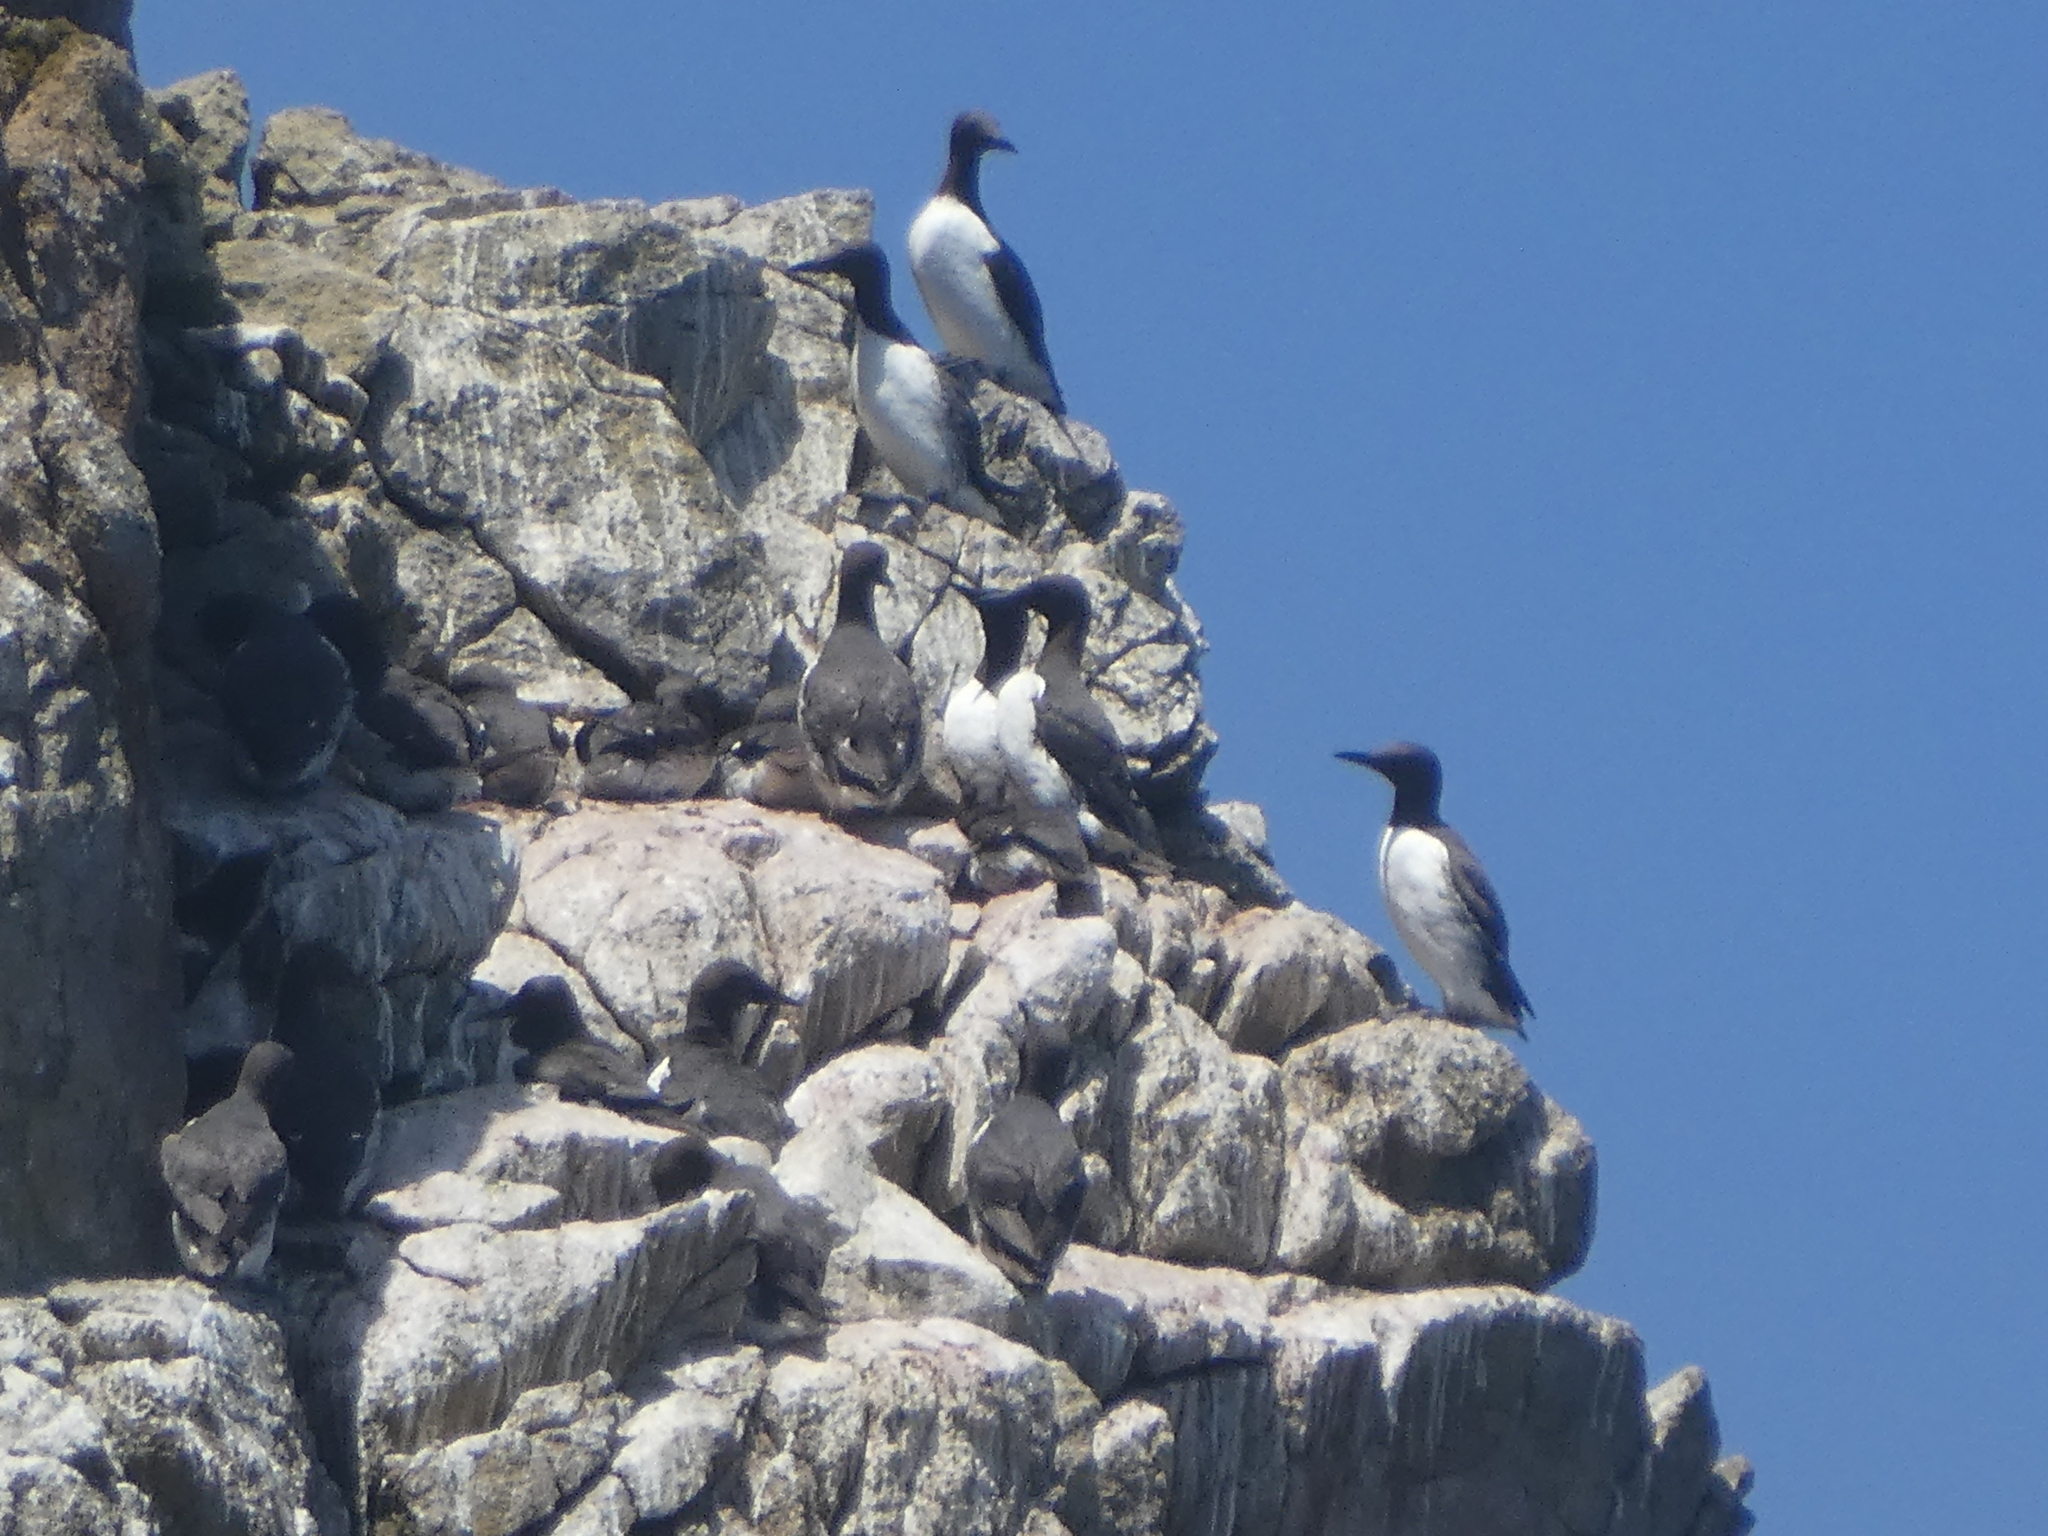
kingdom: Animalia
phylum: Chordata
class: Aves
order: Charadriiformes
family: Alcidae
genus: Uria
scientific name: Uria aalge
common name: Common murre
